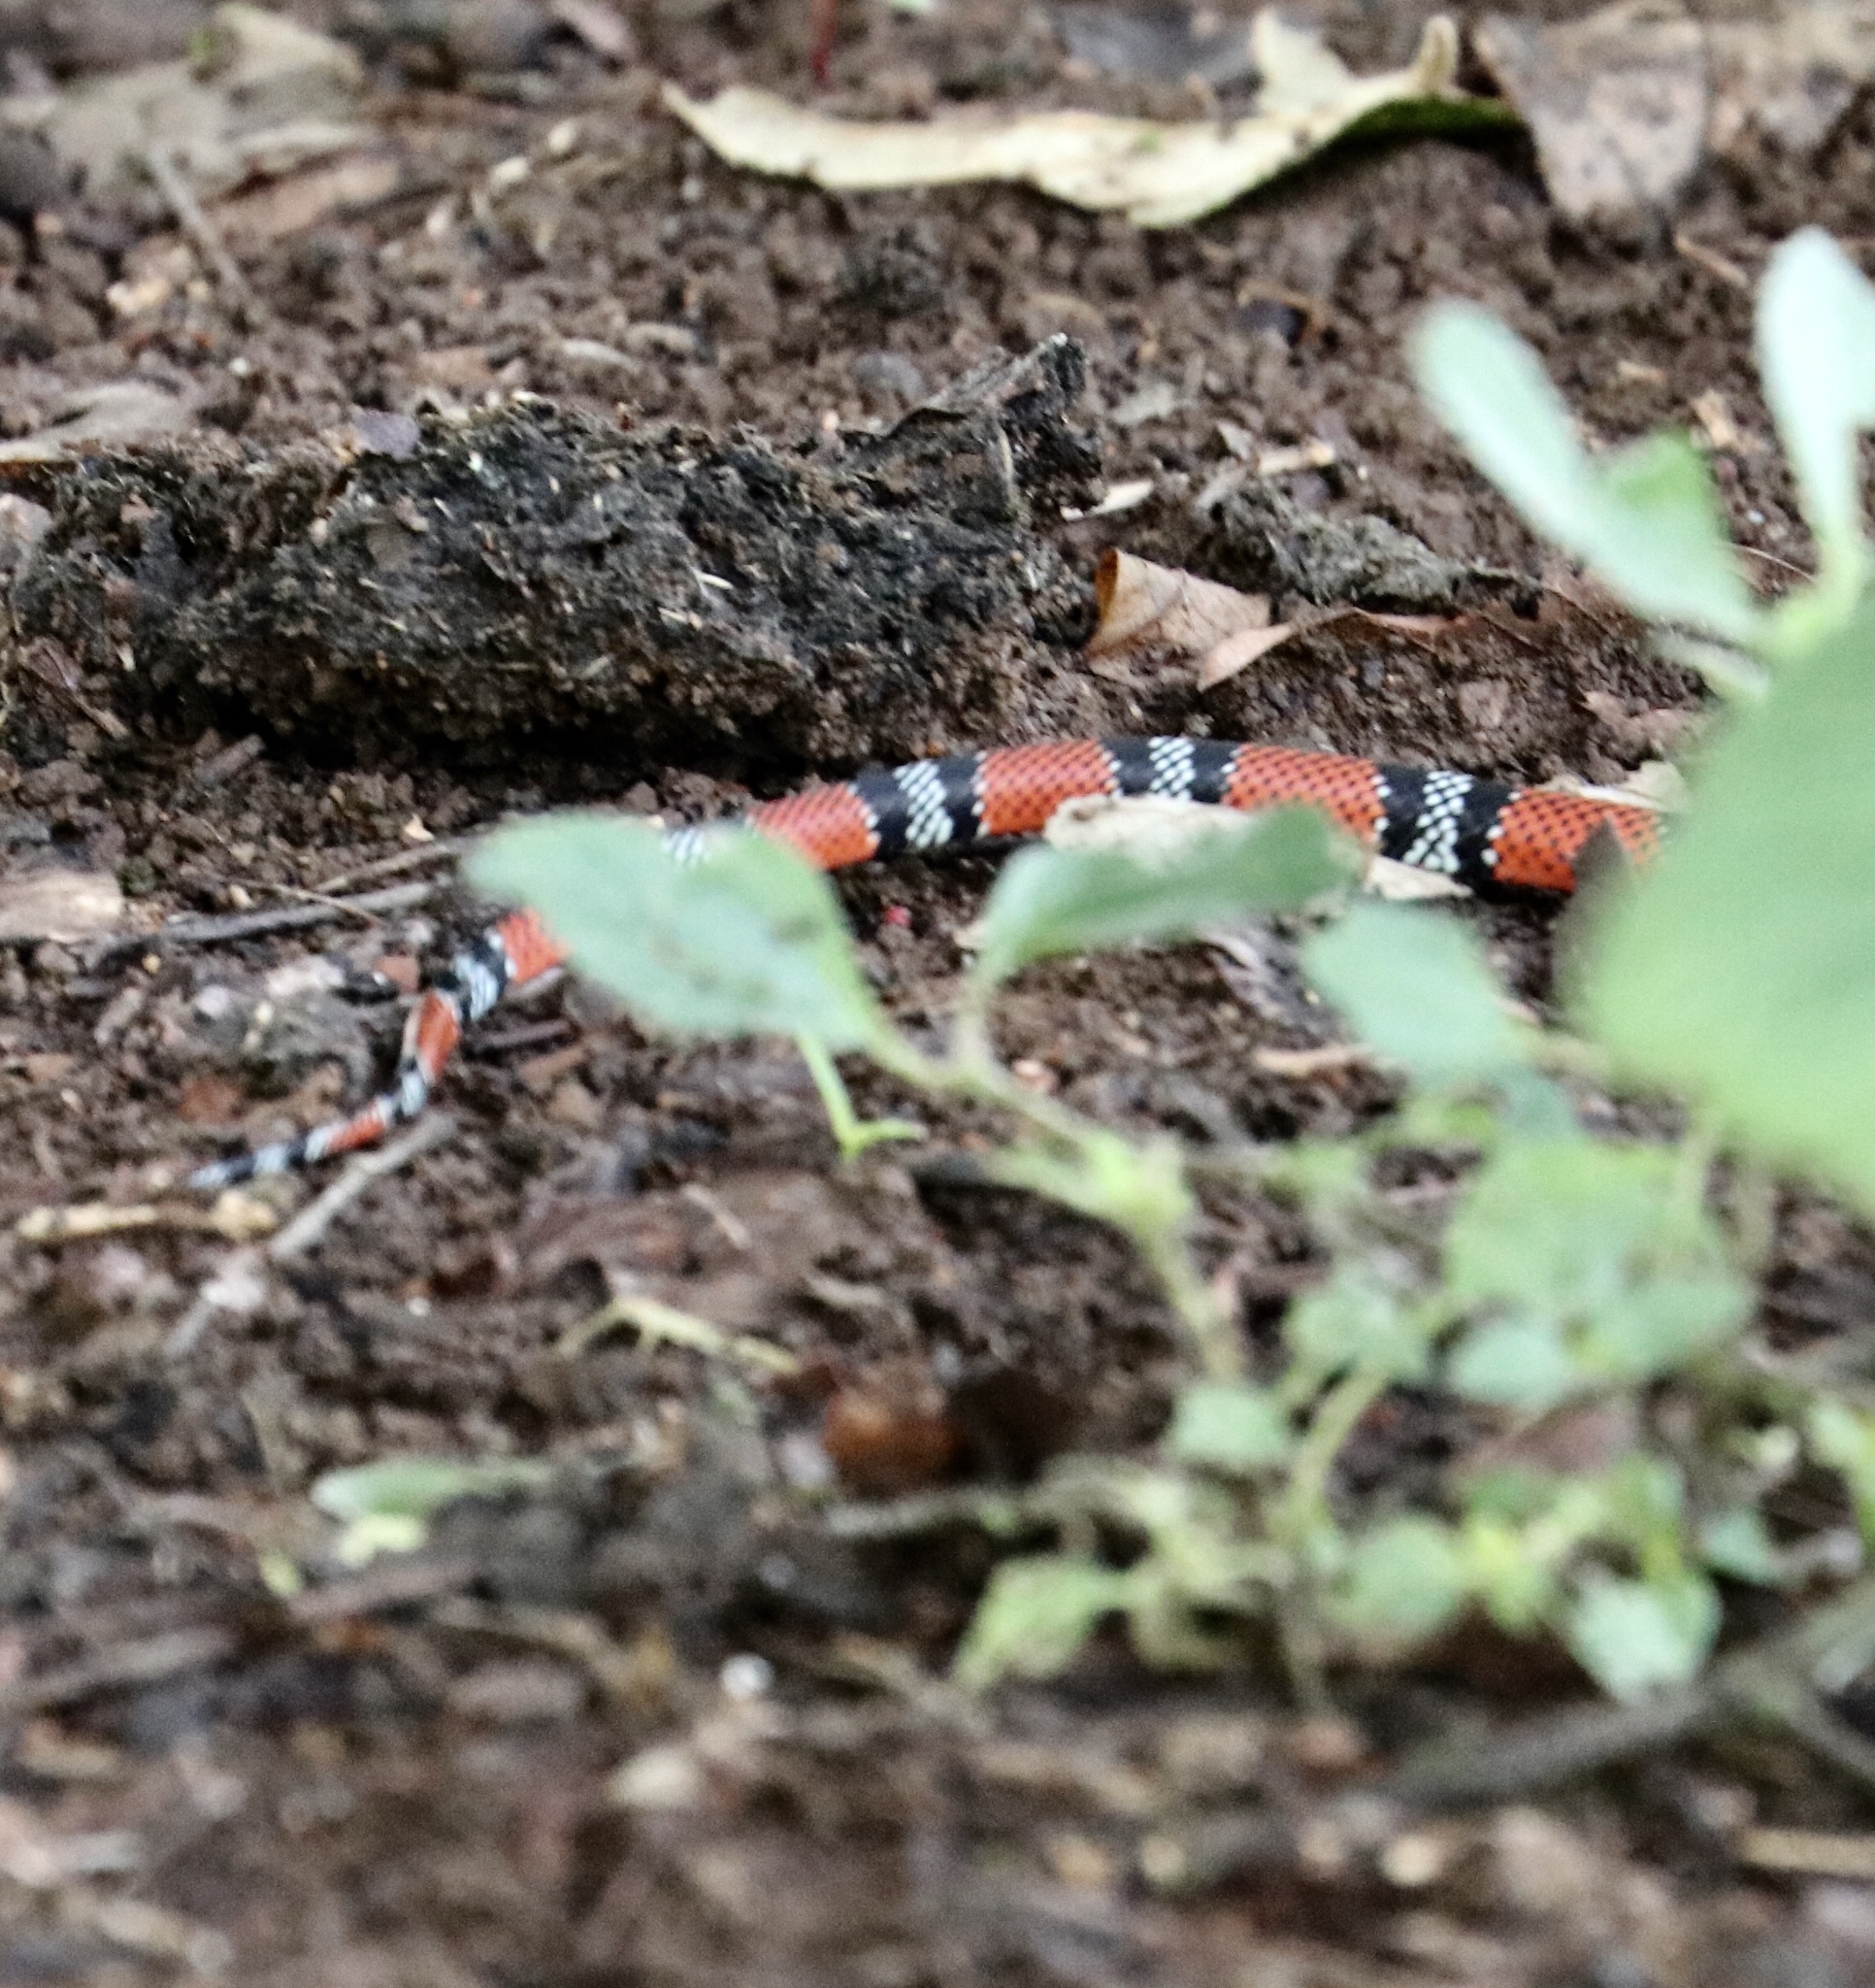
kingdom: Animalia
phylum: Chordata
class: Squamata
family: Colubridae
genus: Erythrolamprus
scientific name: Erythrolamprus bizona
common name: Double-banded coral snake mimic
